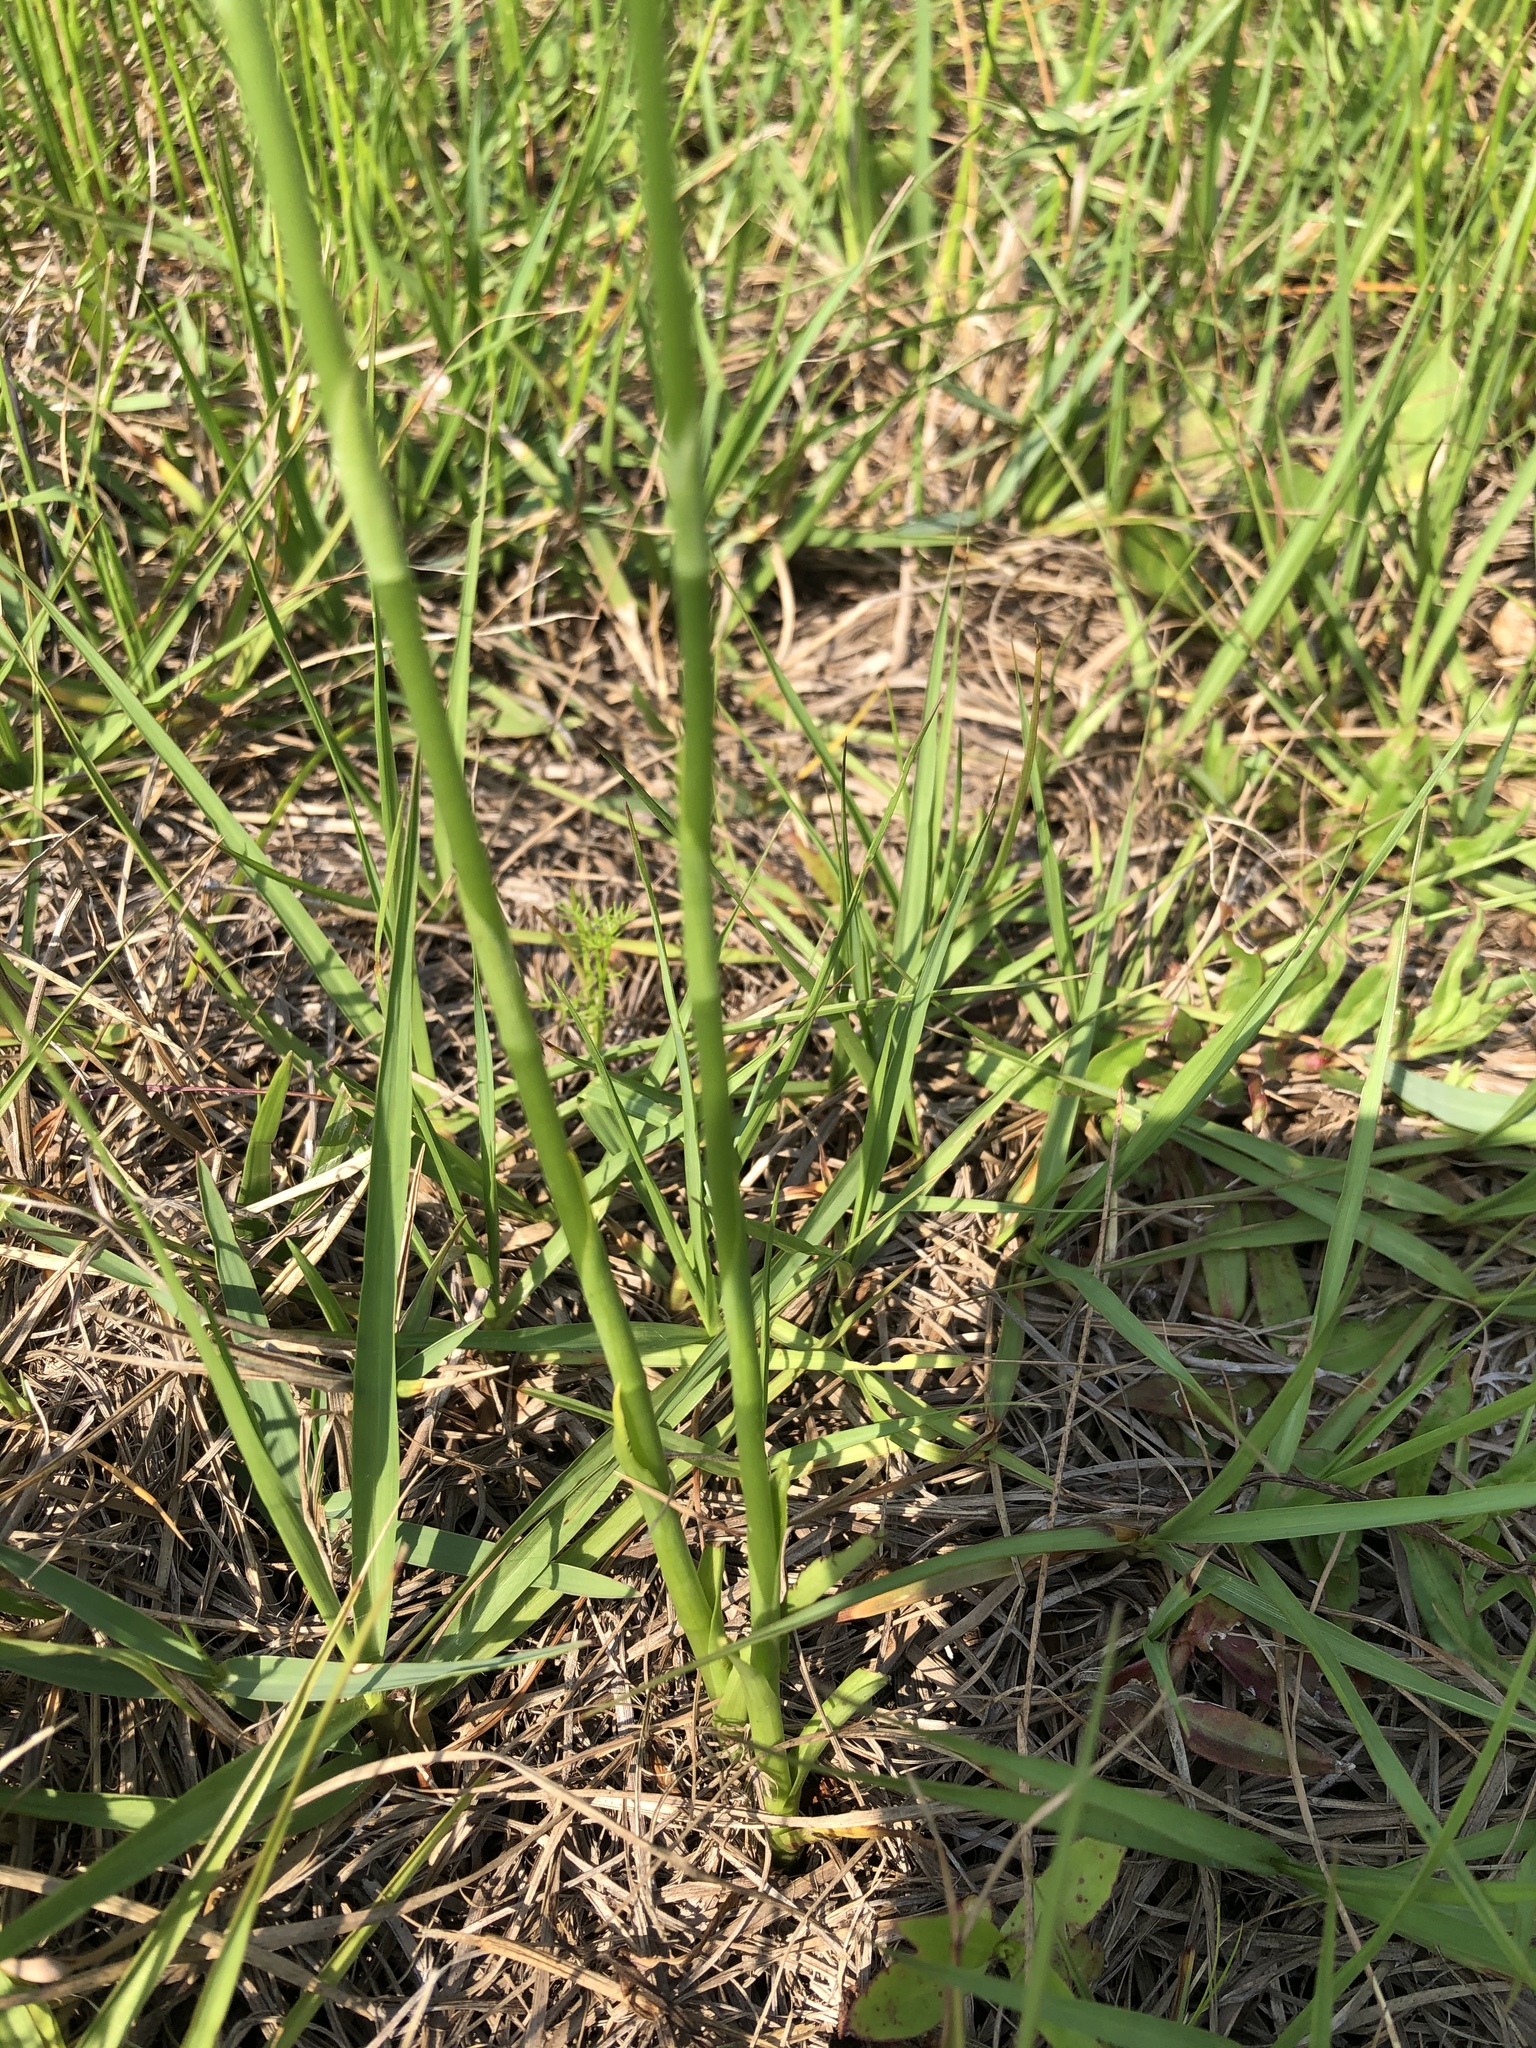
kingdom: Plantae
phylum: Tracheophyta
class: Liliopsida
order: Asparagales
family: Orchidaceae
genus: Spiranthes
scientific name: Spiranthes vernalis
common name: Spring ladies'-tresses
